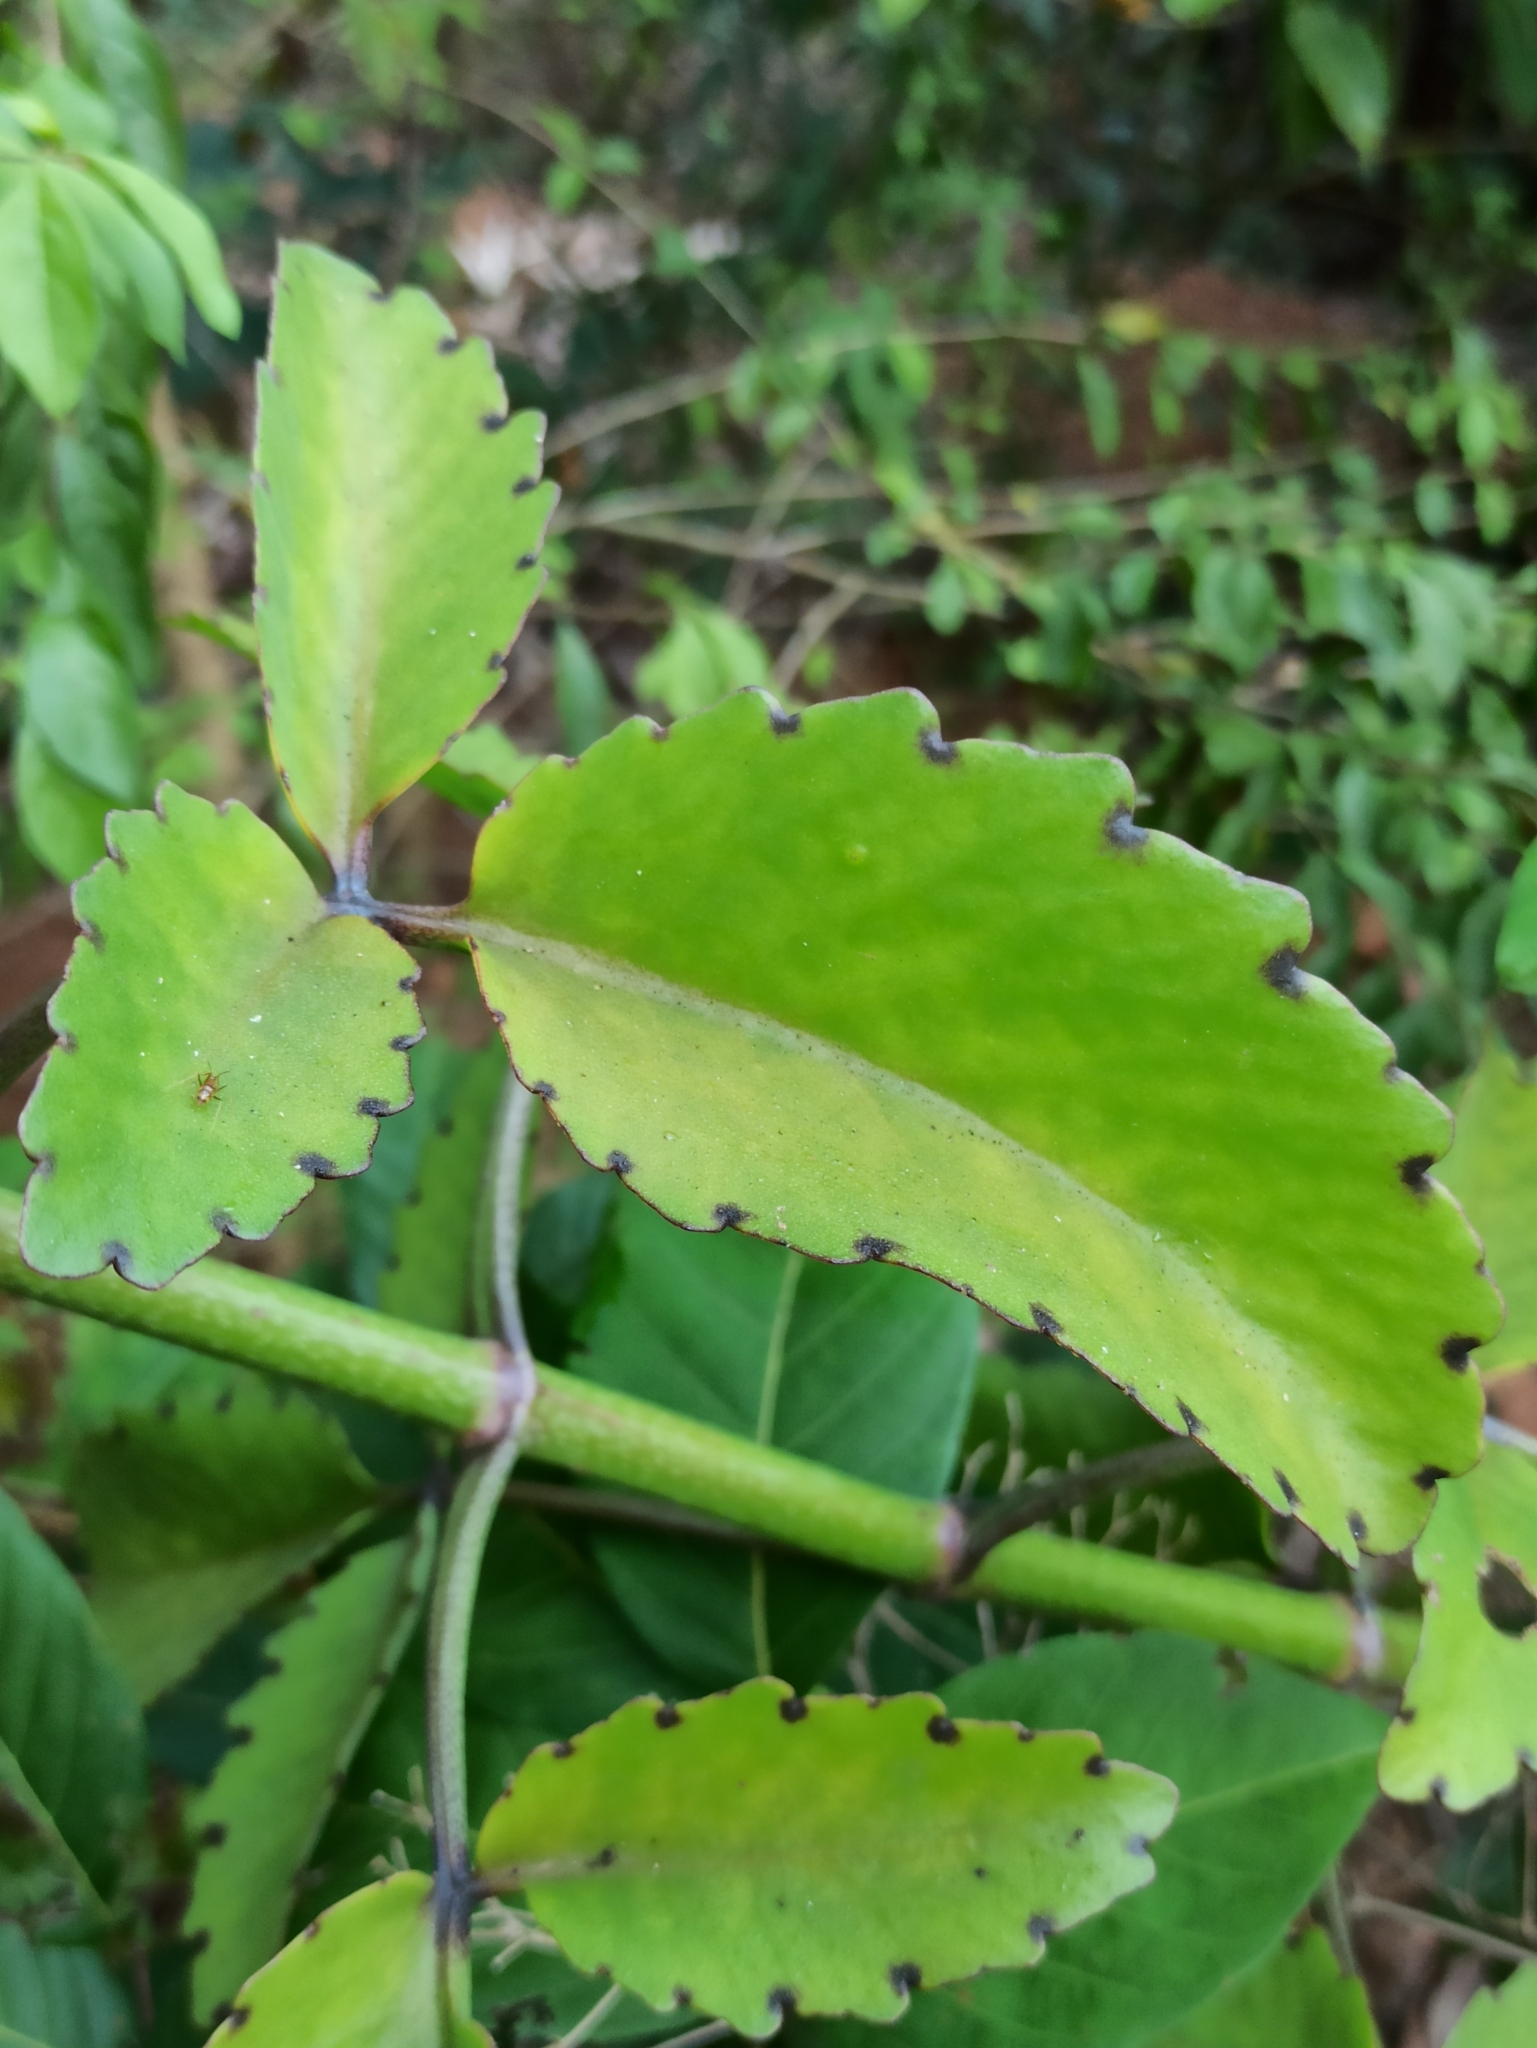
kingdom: Plantae
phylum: Tracheophyta
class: Magnoliopsida
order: Saxifragales
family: Crassulaceae
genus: Kalanchoe
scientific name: Kalanchoe pinnata
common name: Cathedral bells
